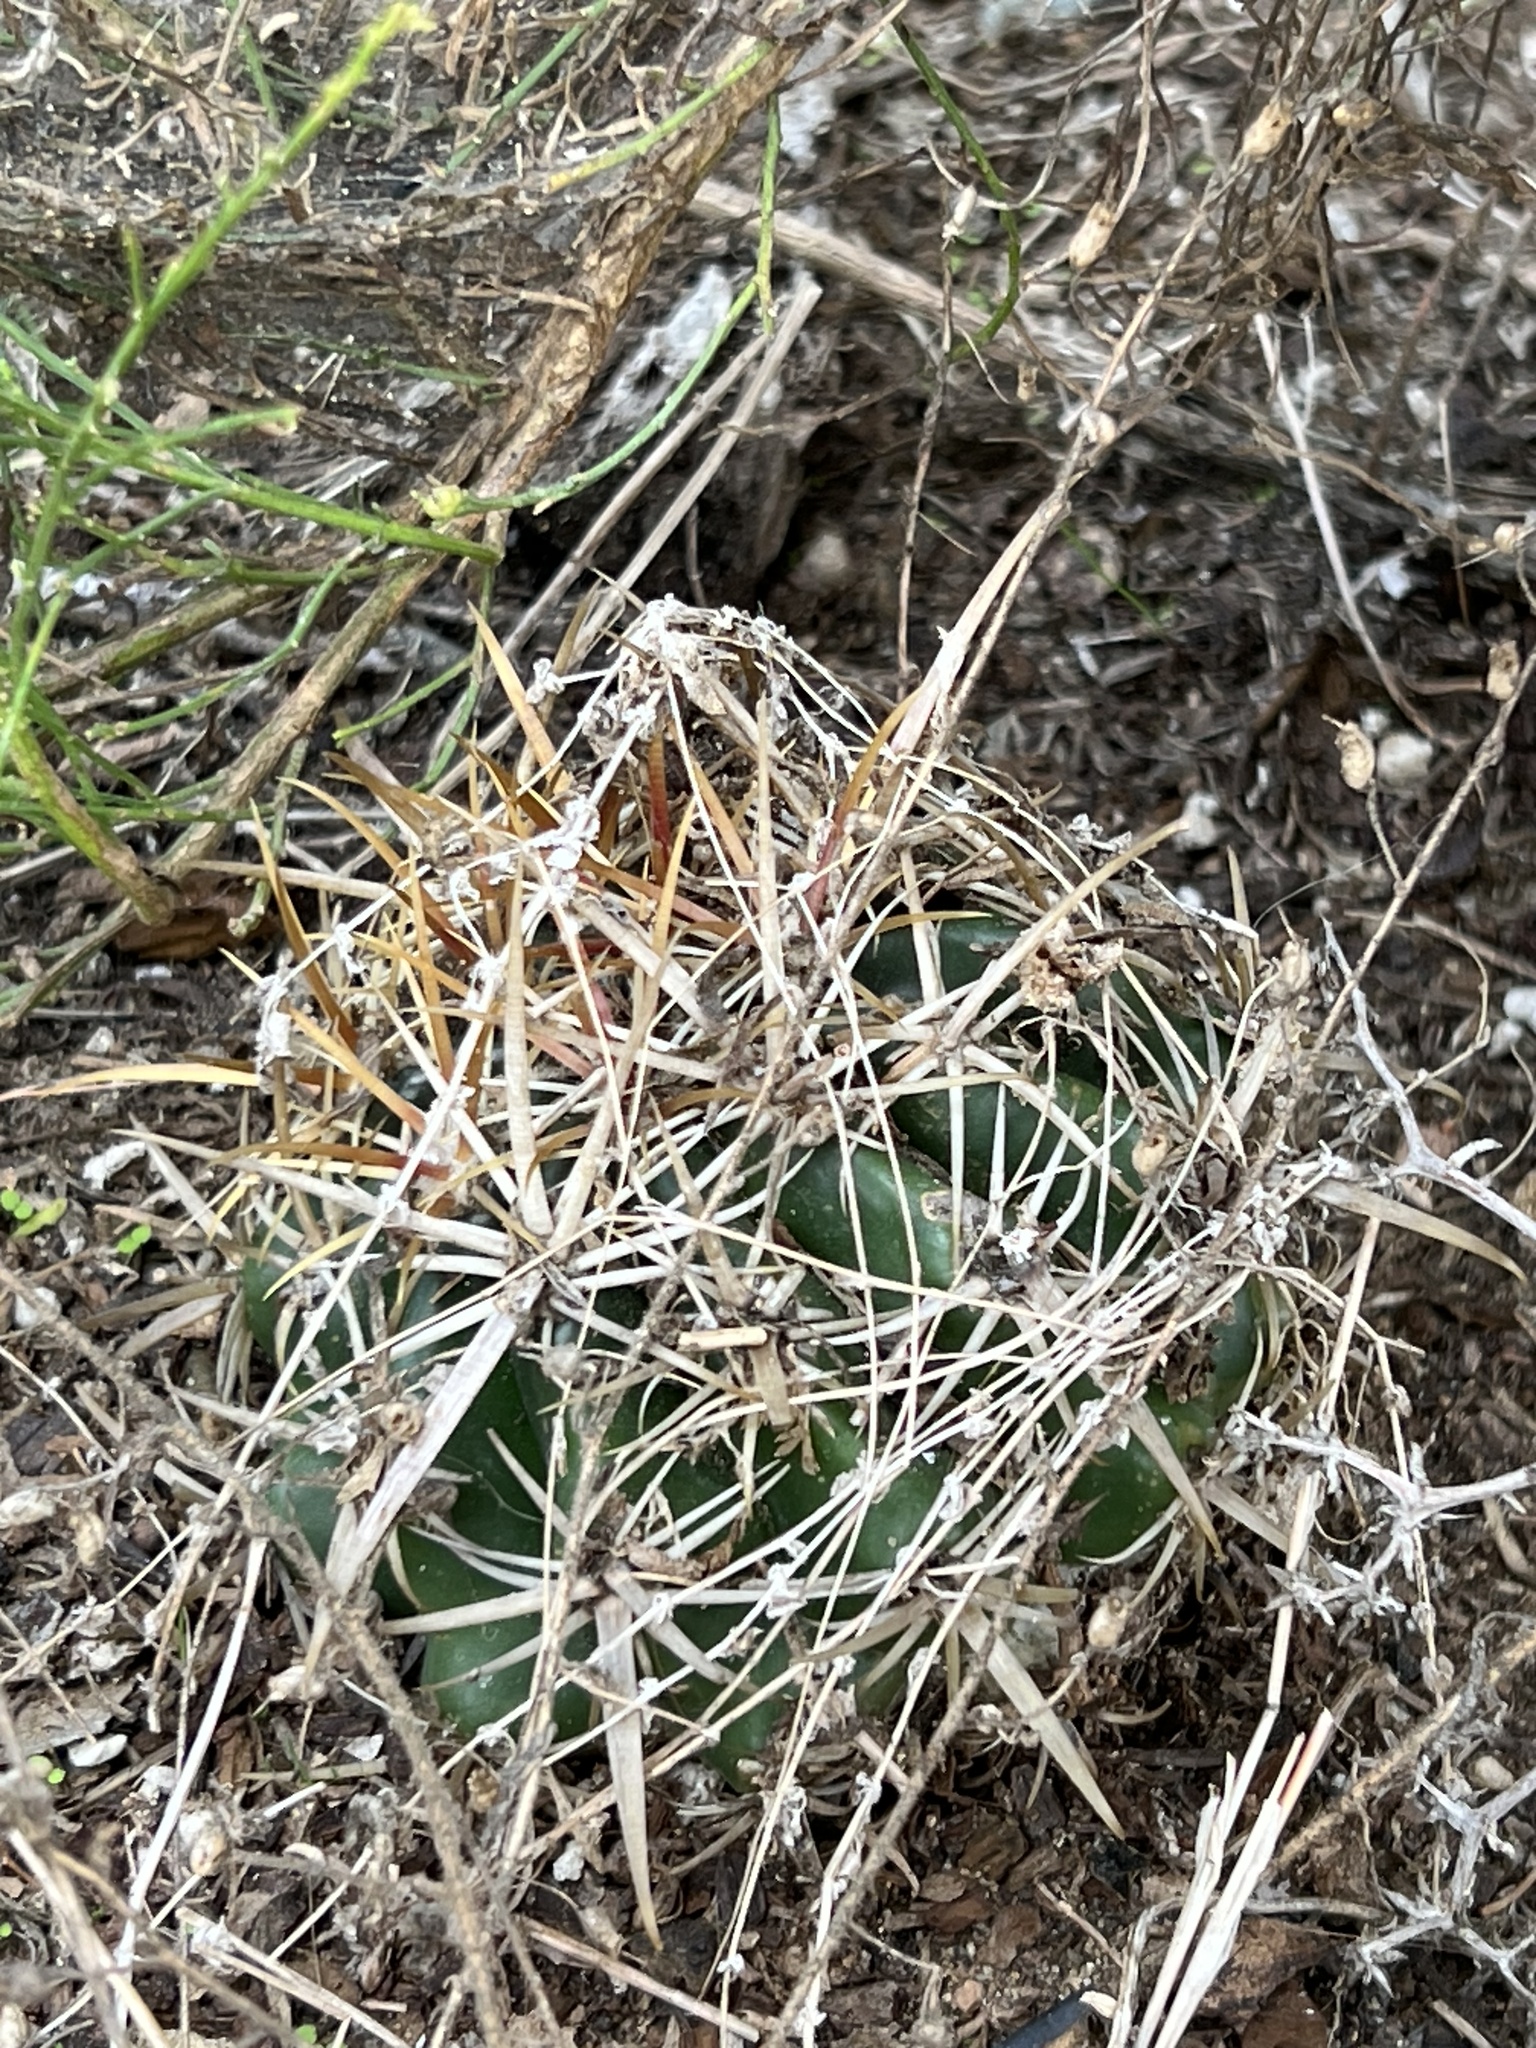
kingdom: Plantae
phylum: Tracheophyta
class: Magnoliopsida
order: Caryophyllales
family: Cactaceae
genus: Ferocactus
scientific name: Ferocactus viridescens
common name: San diego barrel cactus
